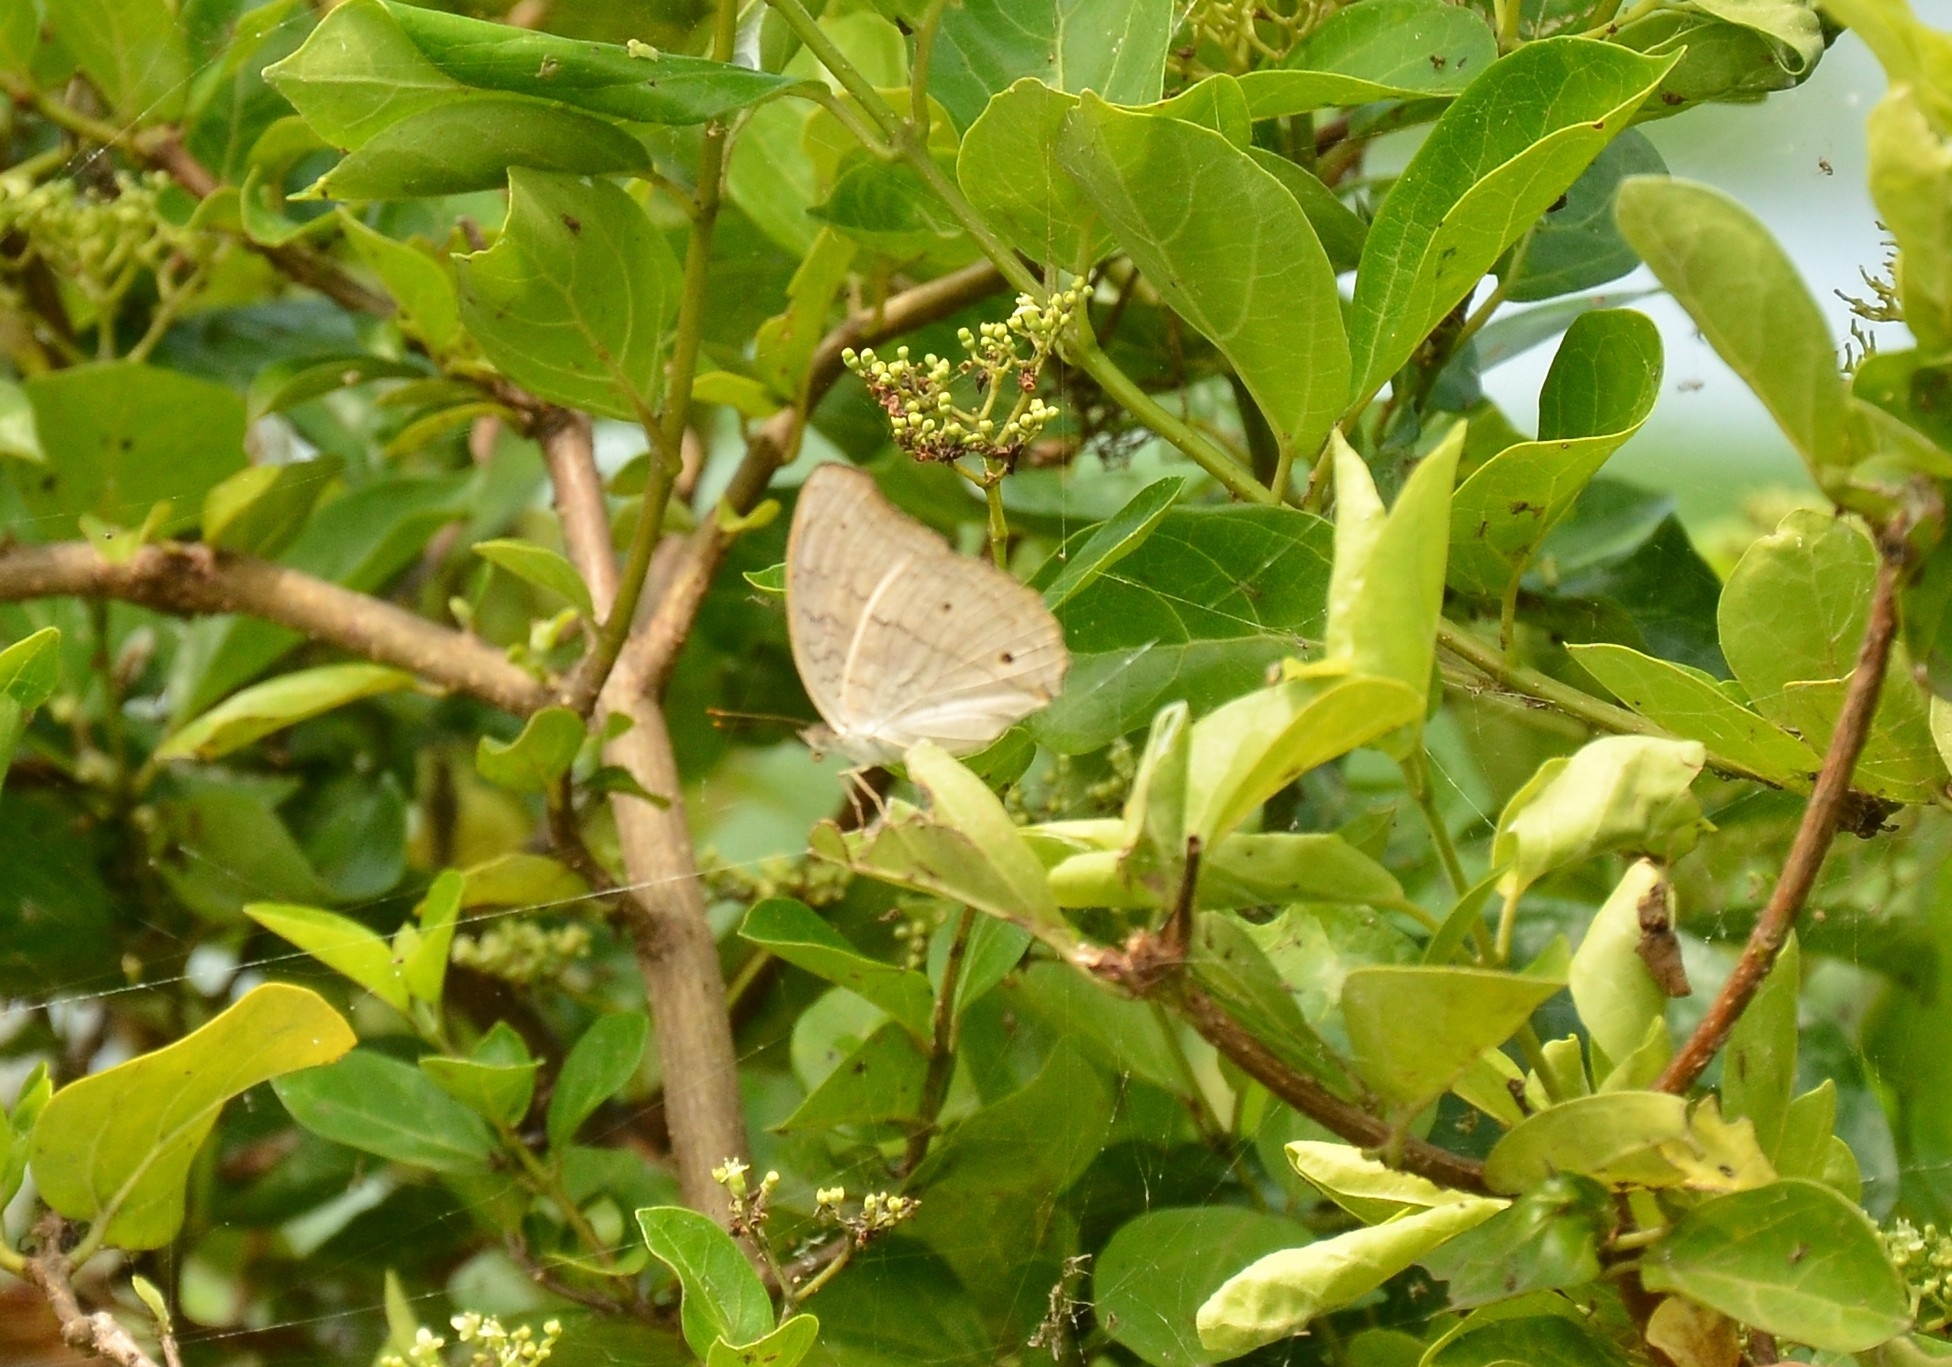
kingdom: Animalia
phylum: Arthropoda
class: Insecta
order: Lepidoptera
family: Nymphalidae
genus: Junonia
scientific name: Junonia atlites
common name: Grey pansy
